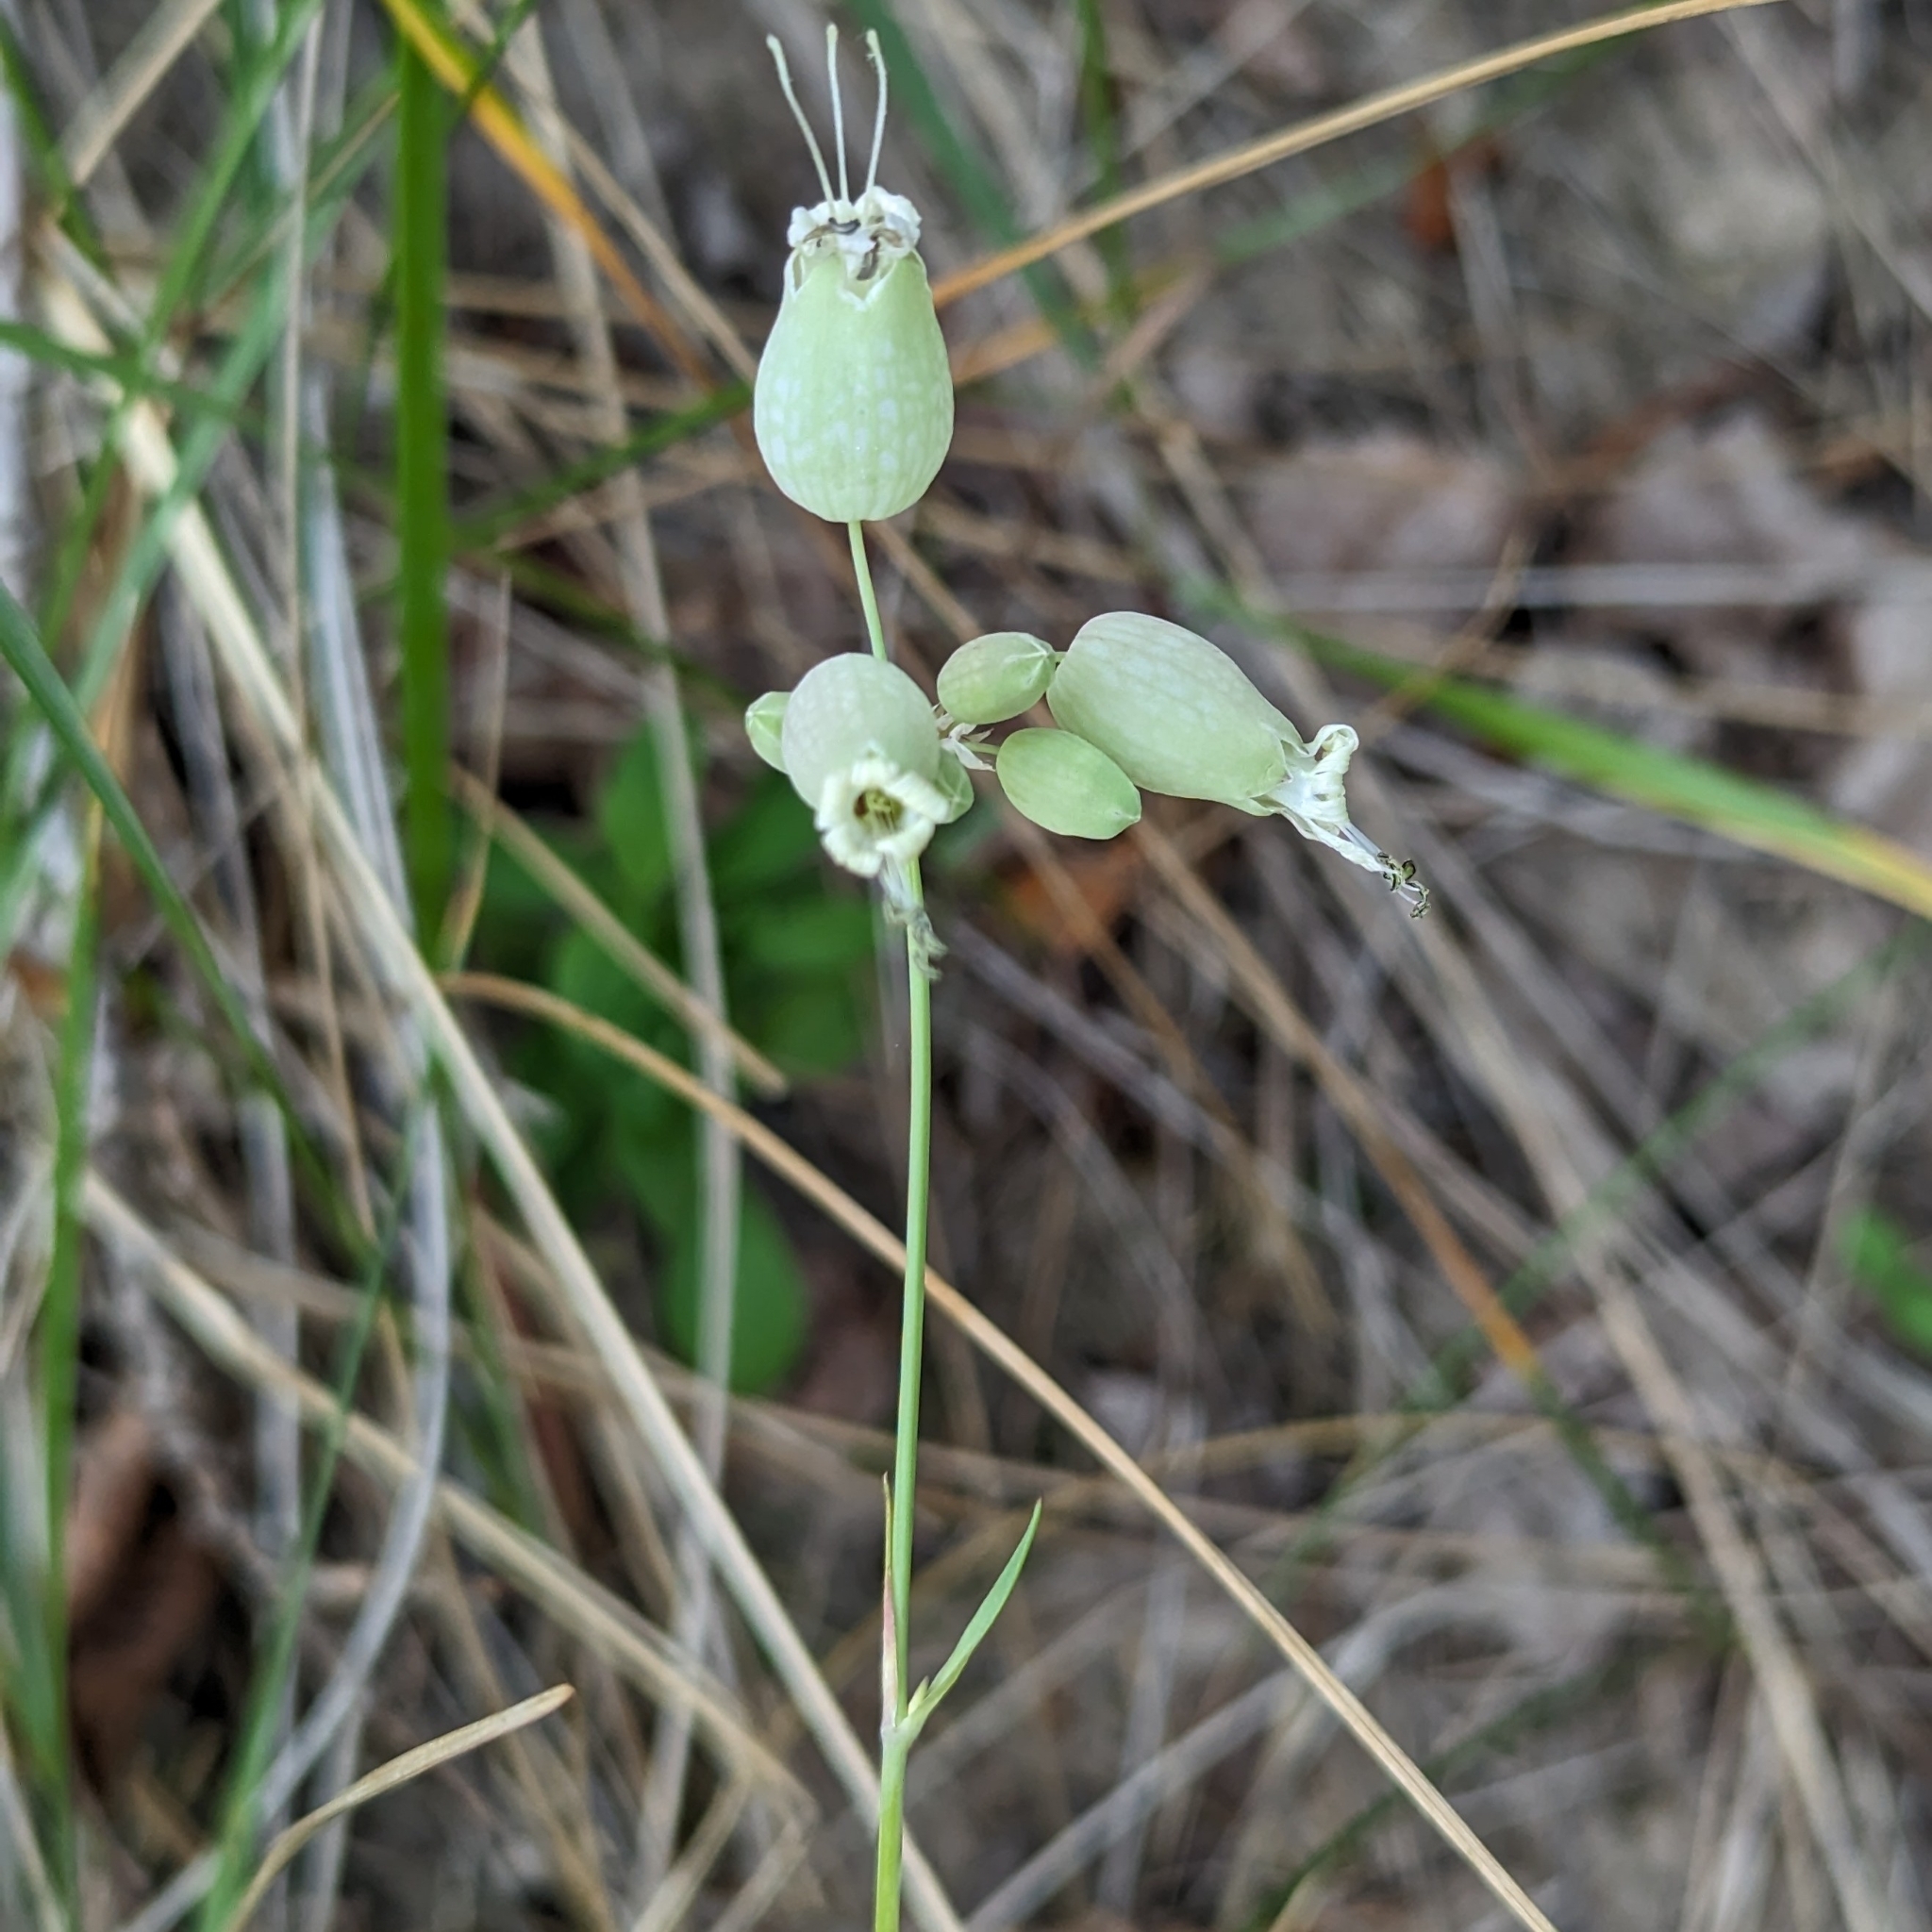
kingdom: Plantae
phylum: Tracheophyta
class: Magnoliopsida
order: Caryophyllales
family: Caryophyllaceae
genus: Silene
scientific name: Silene vulgaris
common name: Bladder campion
